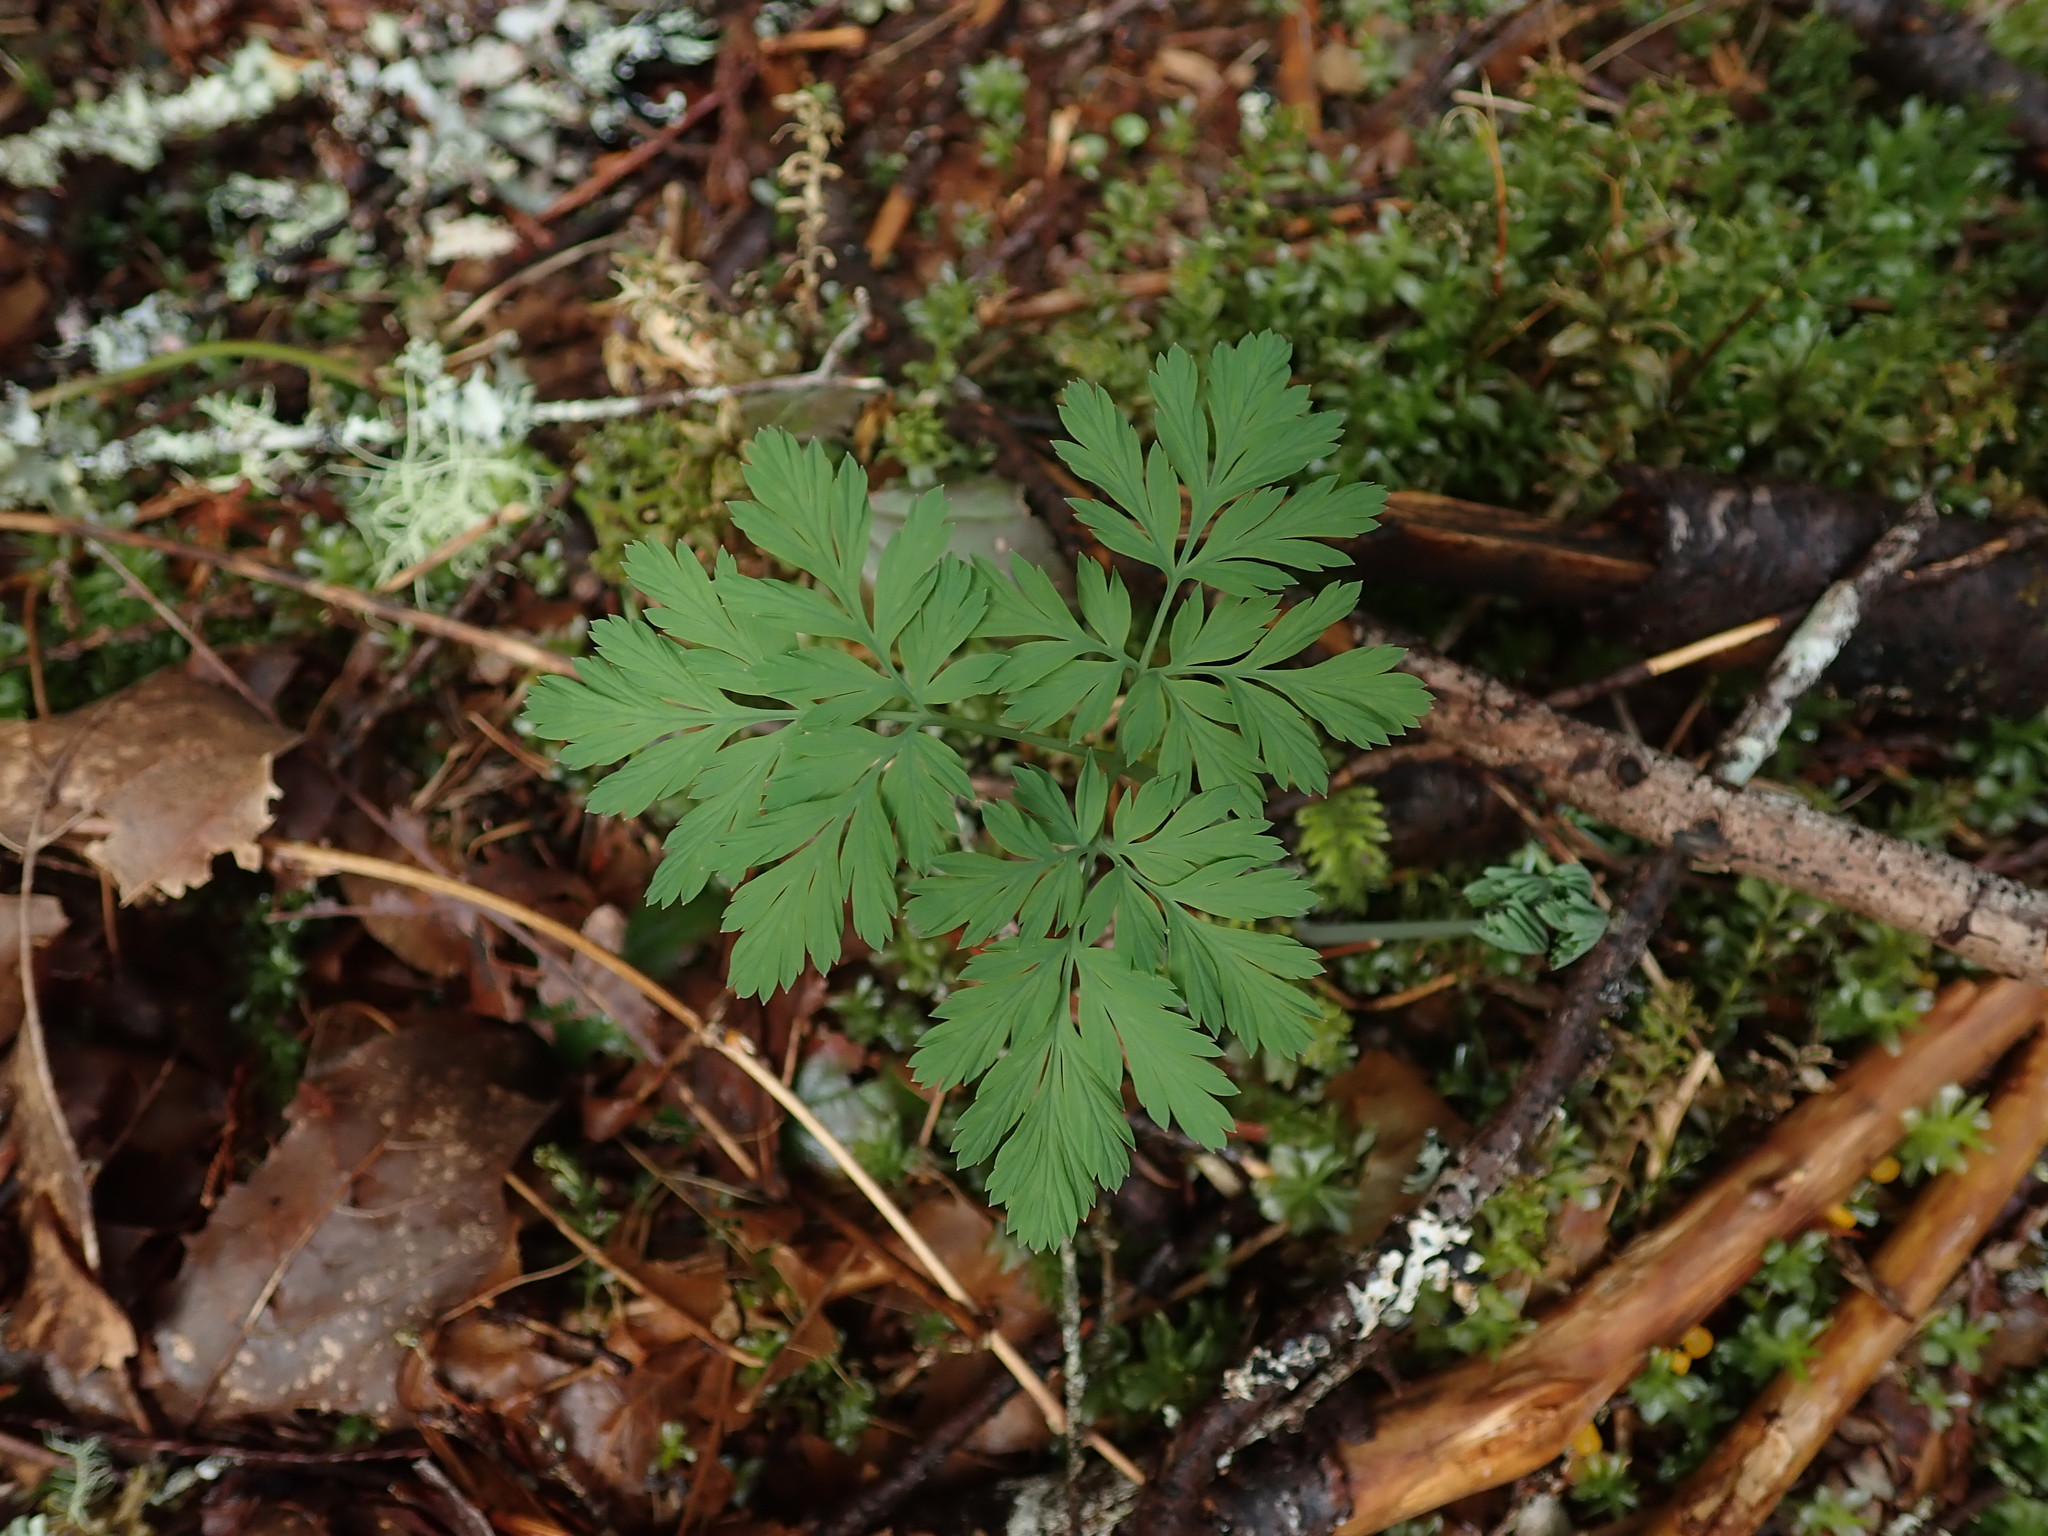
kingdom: Plantae
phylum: Tracheophyta
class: Magnoliopsida
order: Ranunculales
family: Papaveraceae
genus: Dicentra
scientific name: Dicentra formosa
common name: Bleeding-heart
